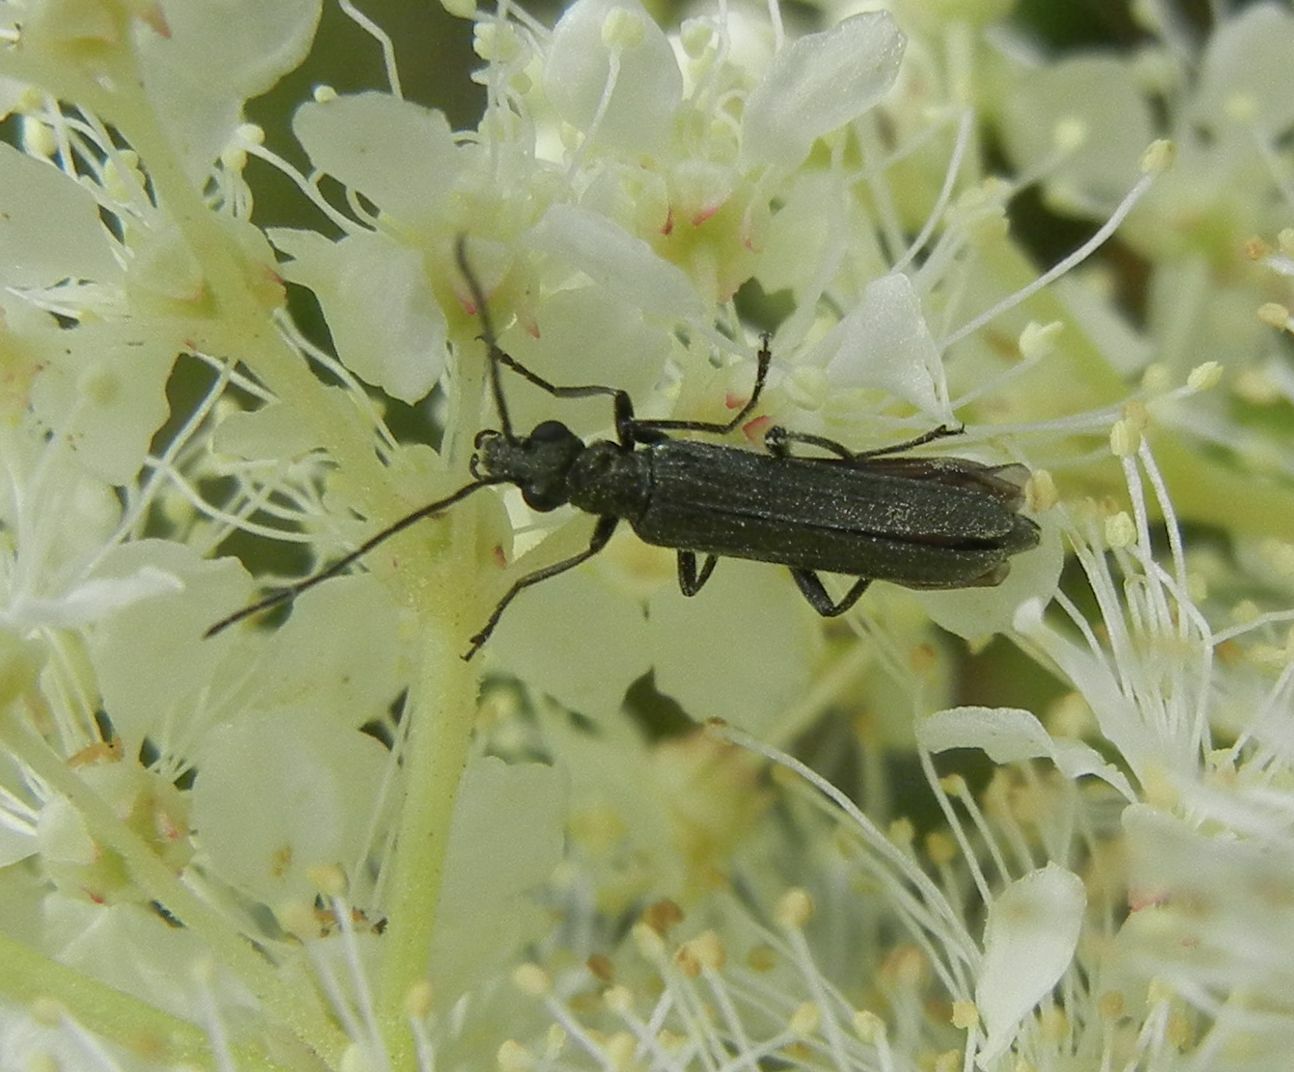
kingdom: Animalia
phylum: Arthropoda
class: Insecta
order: Coleoptera
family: Oedemeridae
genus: Oedemera
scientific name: Oedemera lurida
